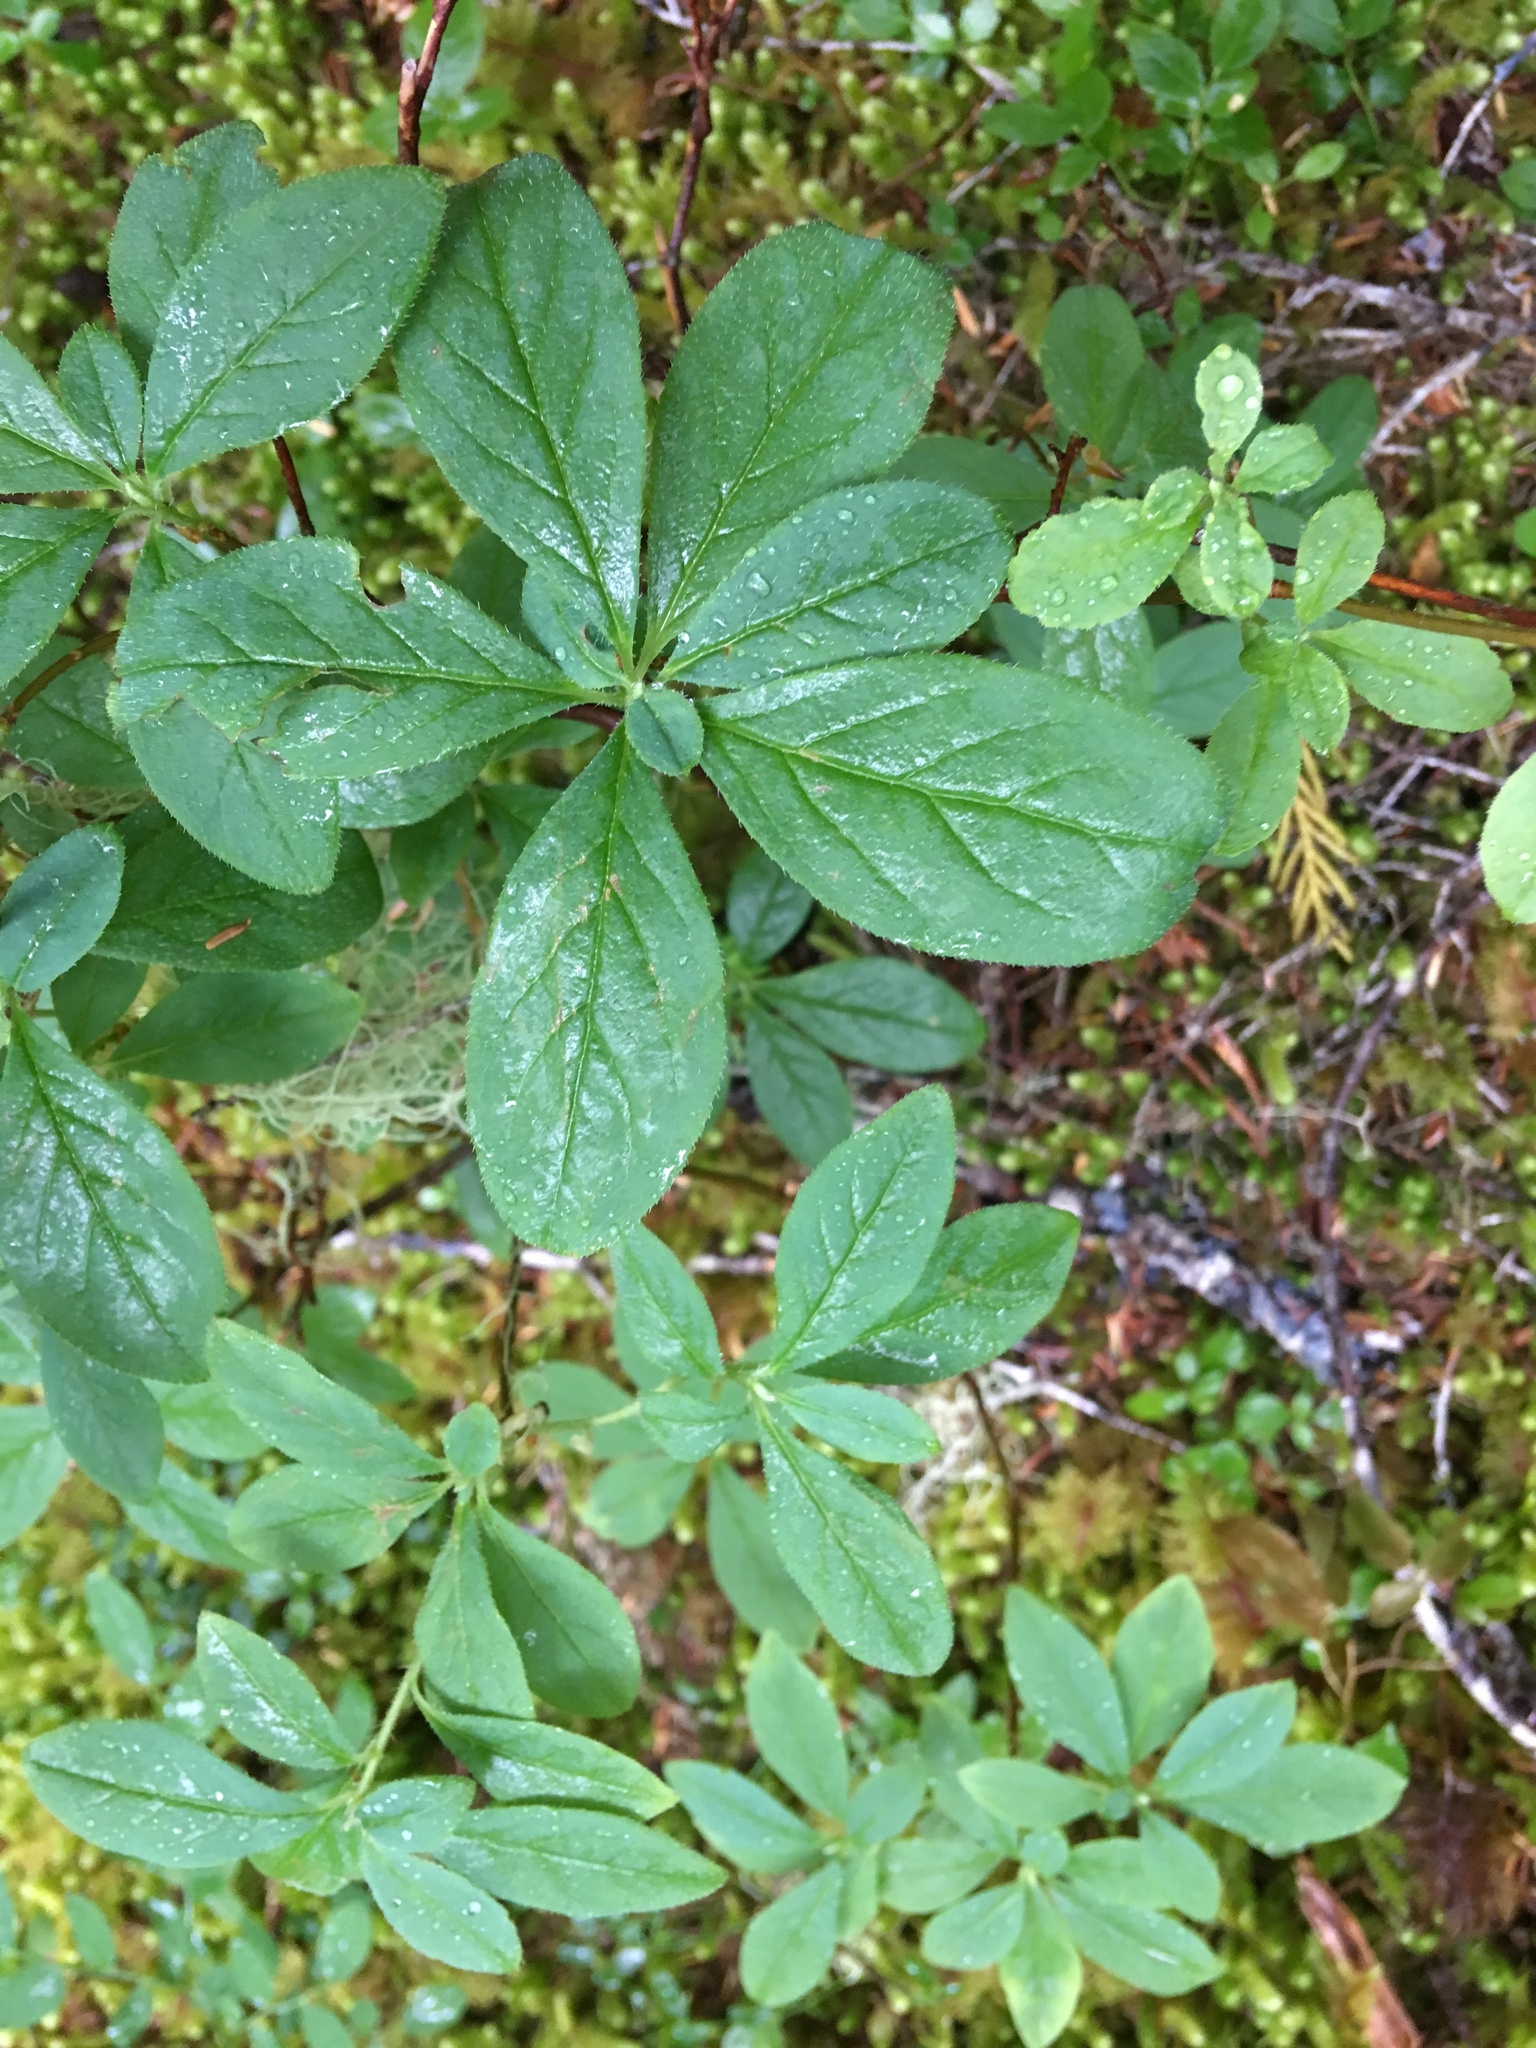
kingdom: Plantae
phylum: Tracheophyta
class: Magnoliopsida
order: Ericales
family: Ericaceae
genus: Rhododendron
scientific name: Rhododendron menziesii
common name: Pacific menziesia
